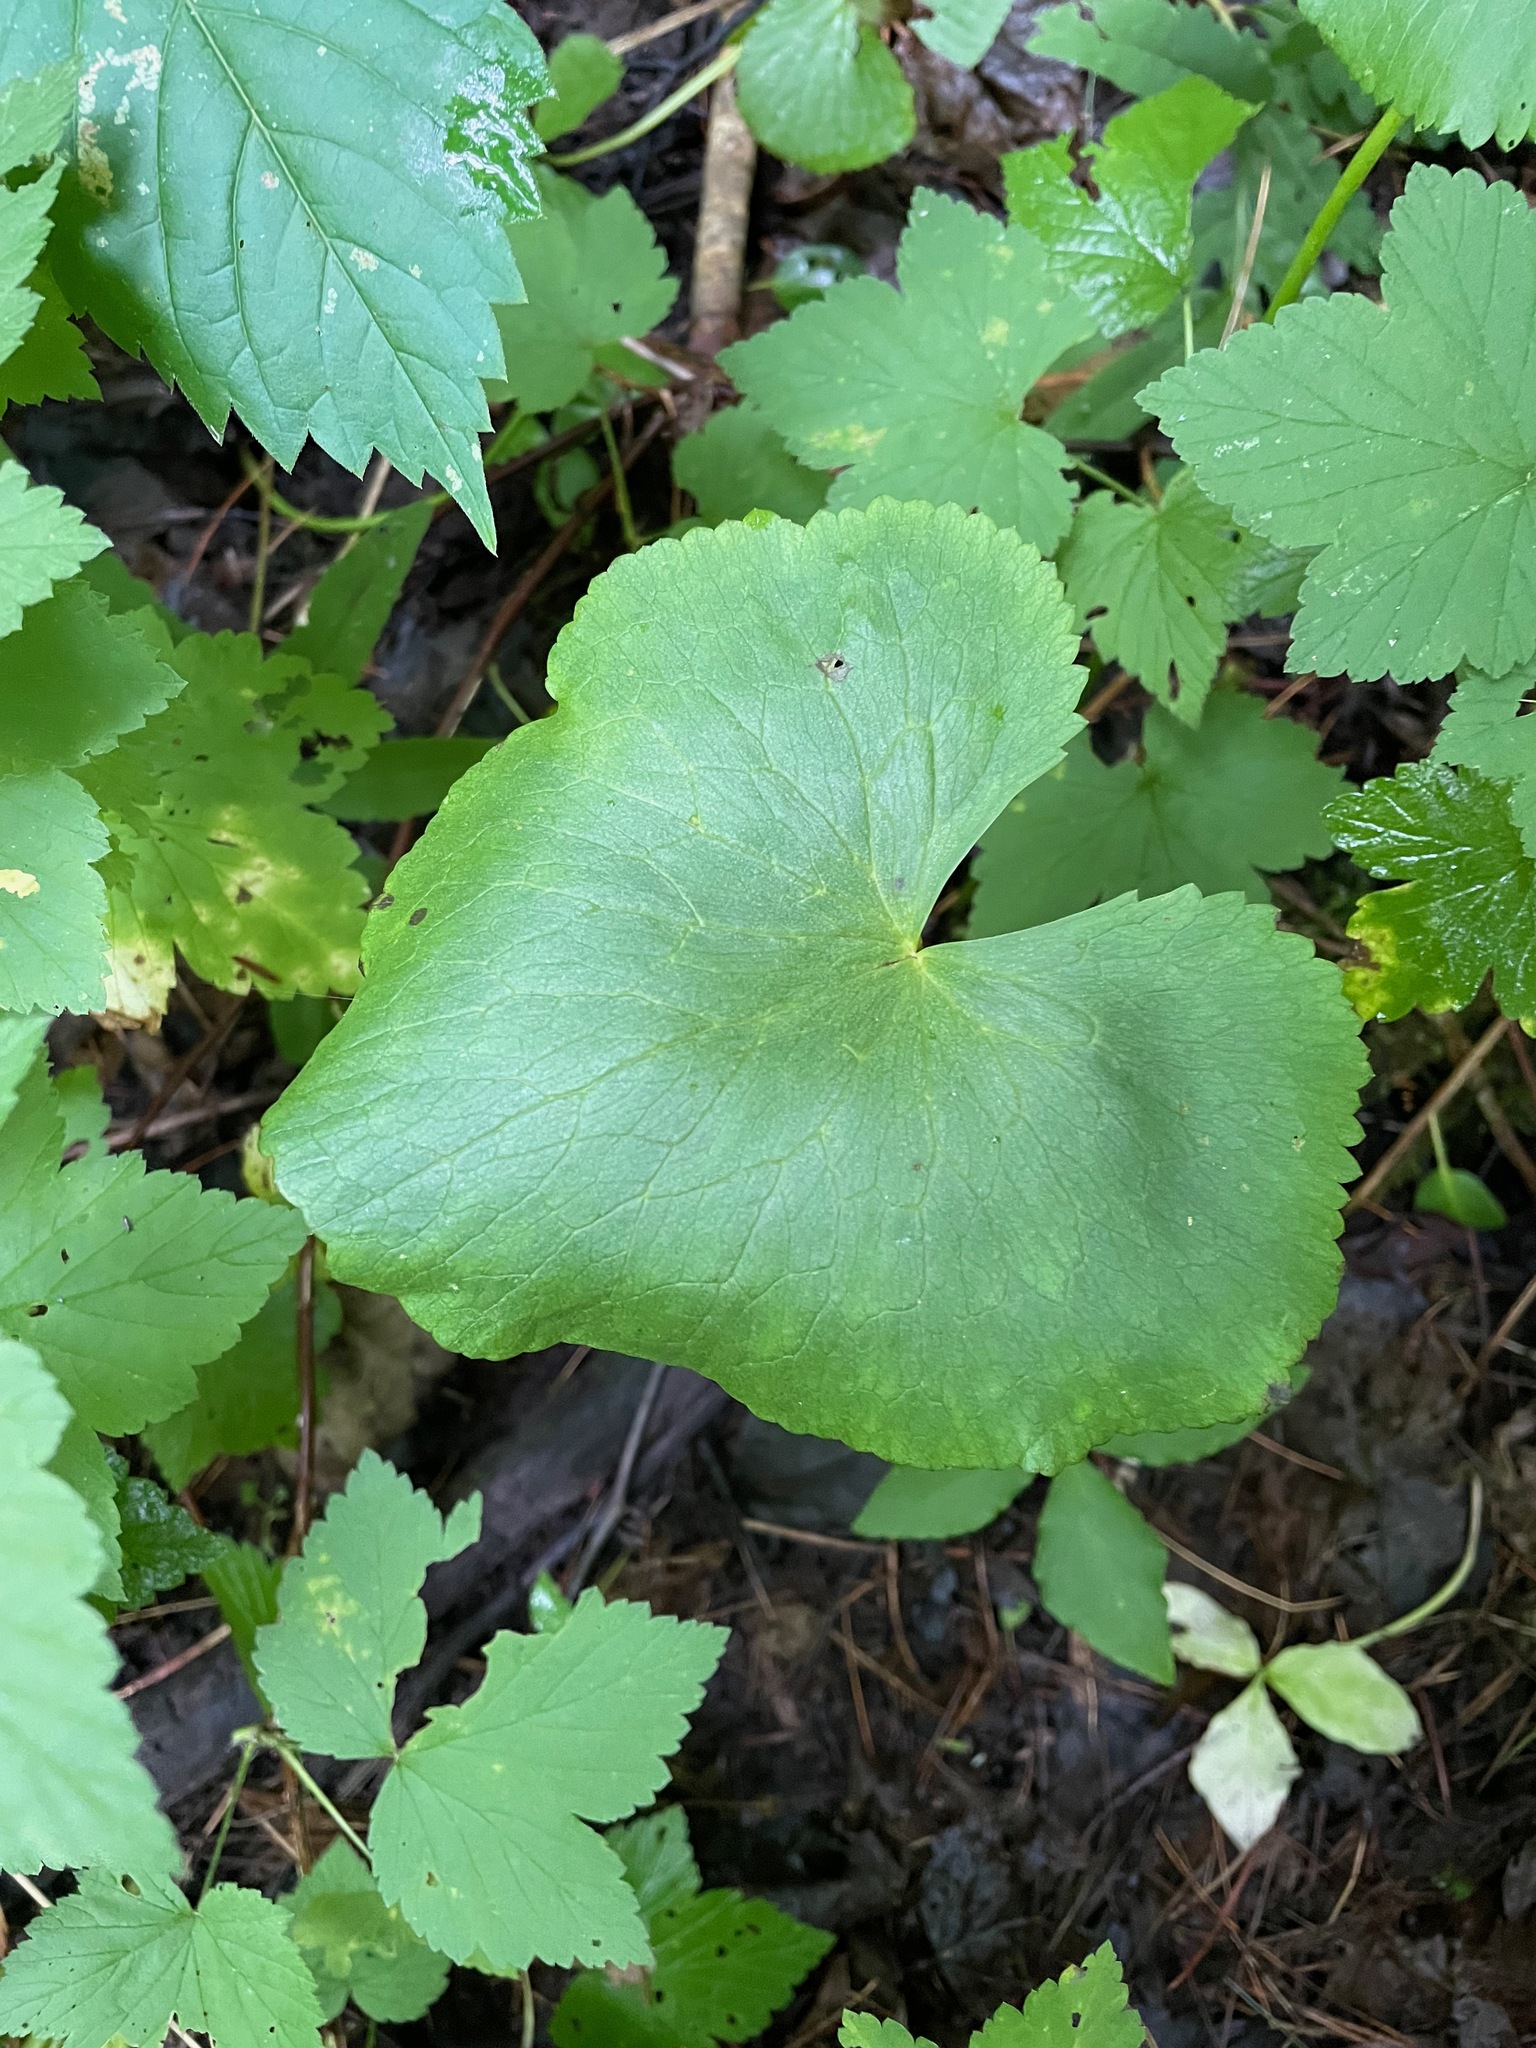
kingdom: Plantae
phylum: Tracheophyta
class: Magnoliopsida
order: Ranunculales
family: Ranunculaceae
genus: Caltha
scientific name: Caltha palustris
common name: Marsh marigold
